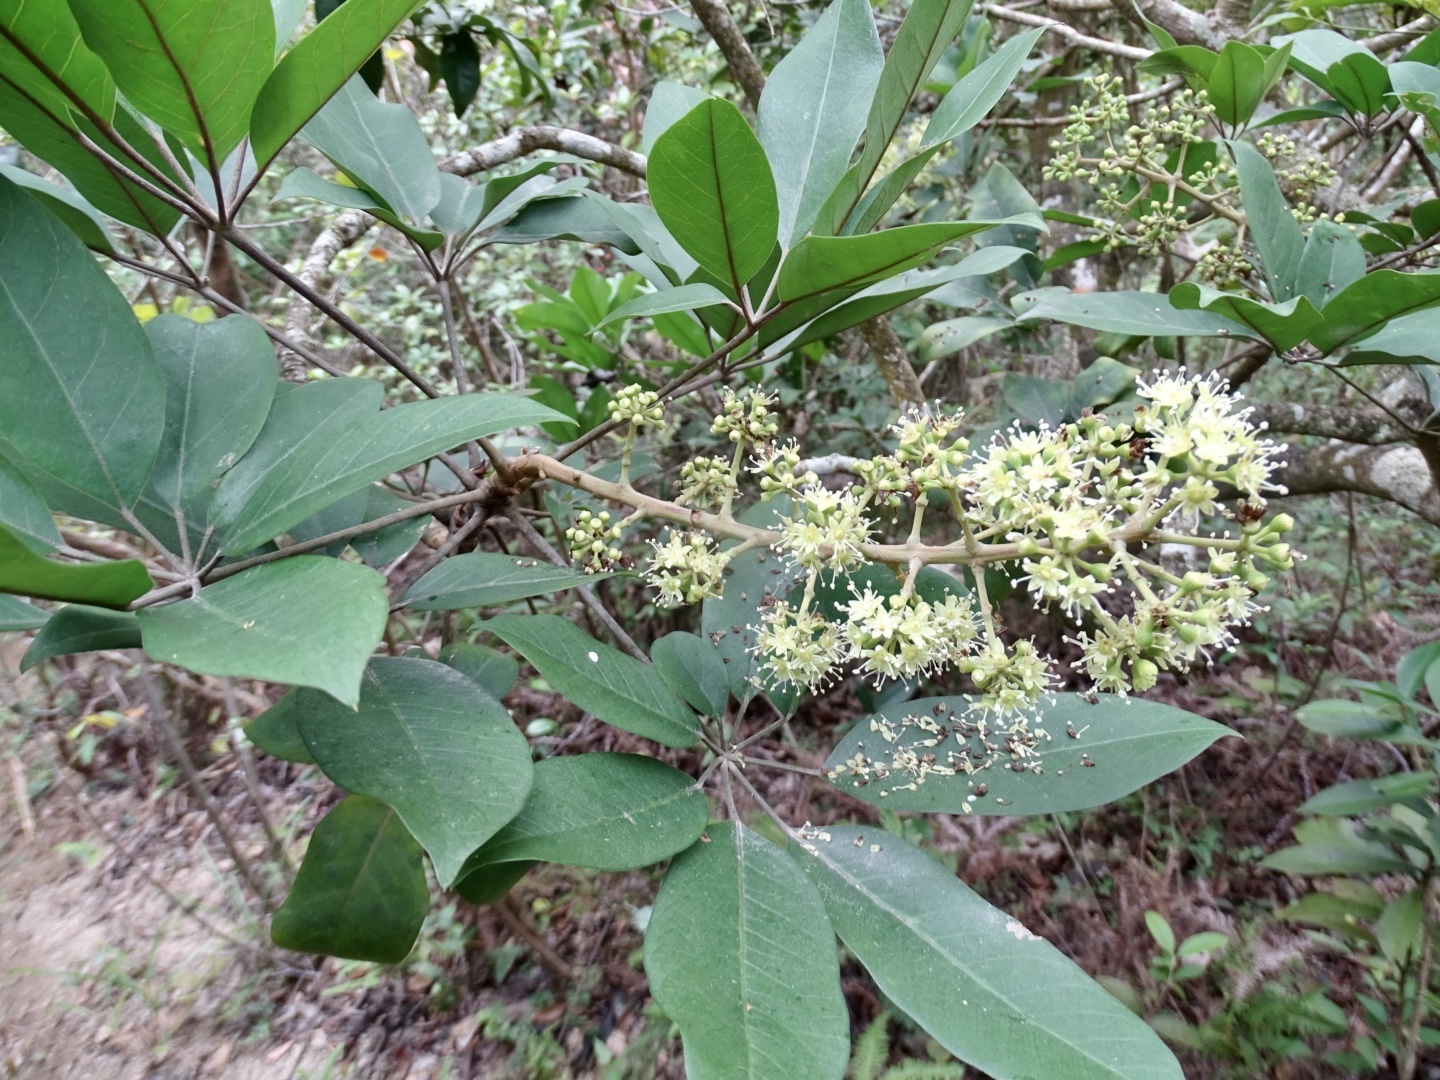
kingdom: Plantae
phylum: Tracheophyta
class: Magnoliopsida
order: Apiales
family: Araliaceae
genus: Heptapleurum
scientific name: Heptapleurum heptaphyllum
